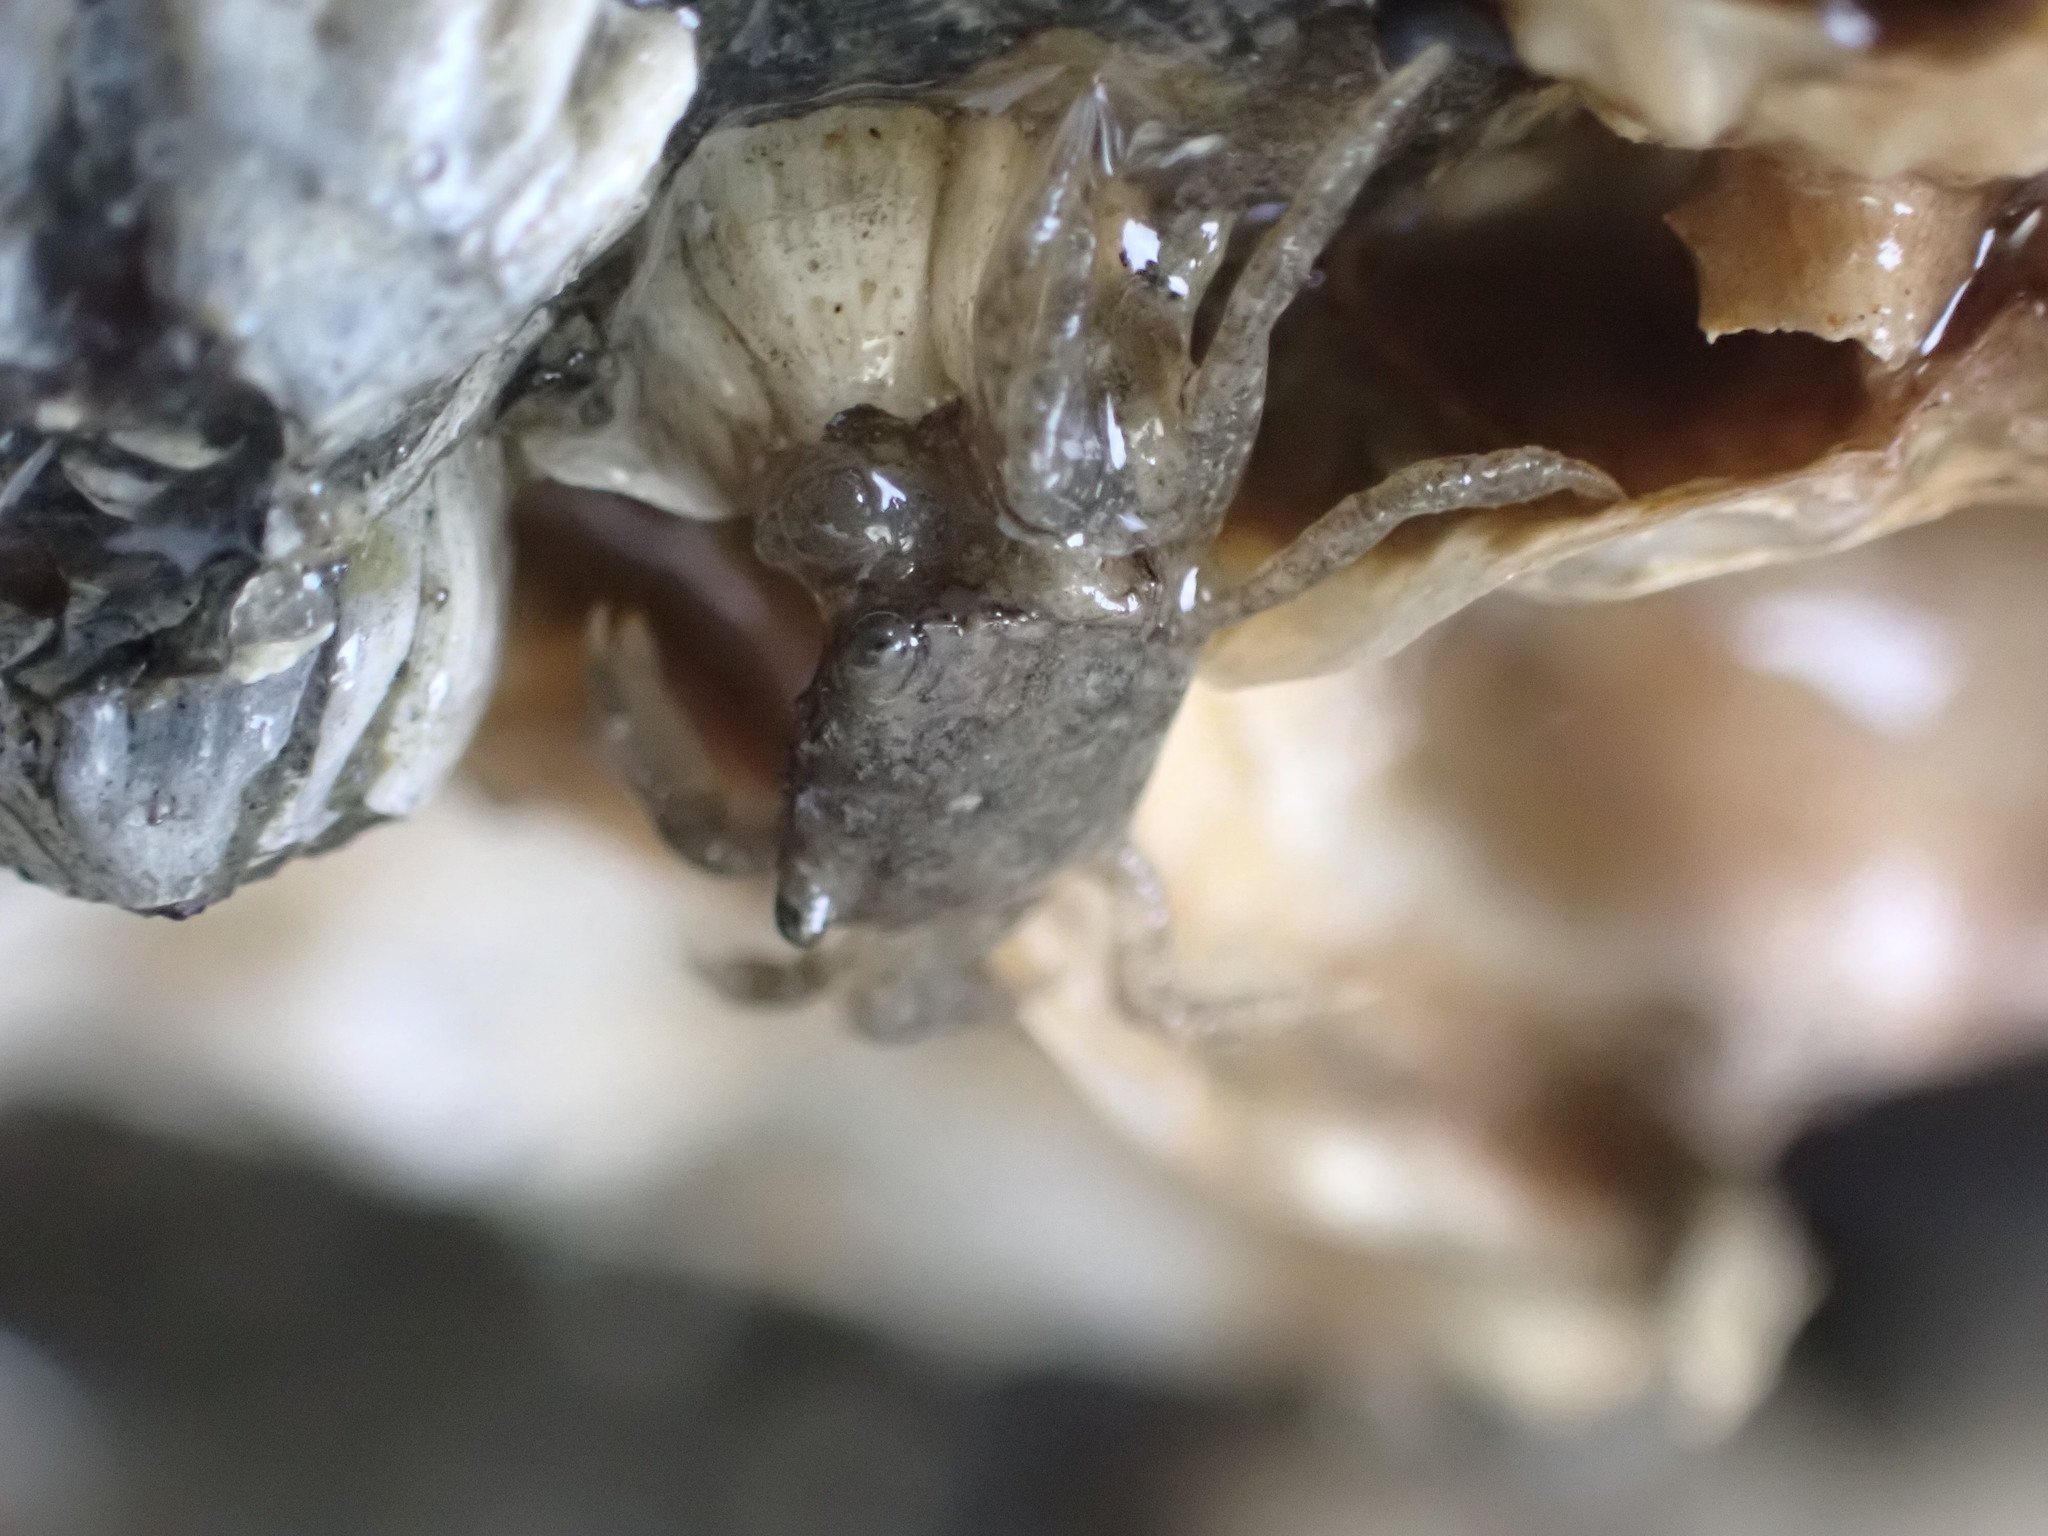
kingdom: Animalia
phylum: Arthropoda
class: Malacostraca
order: Decapoda
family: Varunidae
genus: Hemigrapsus
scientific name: Hemigrapsus oregonensis
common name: Yellow shore crab
